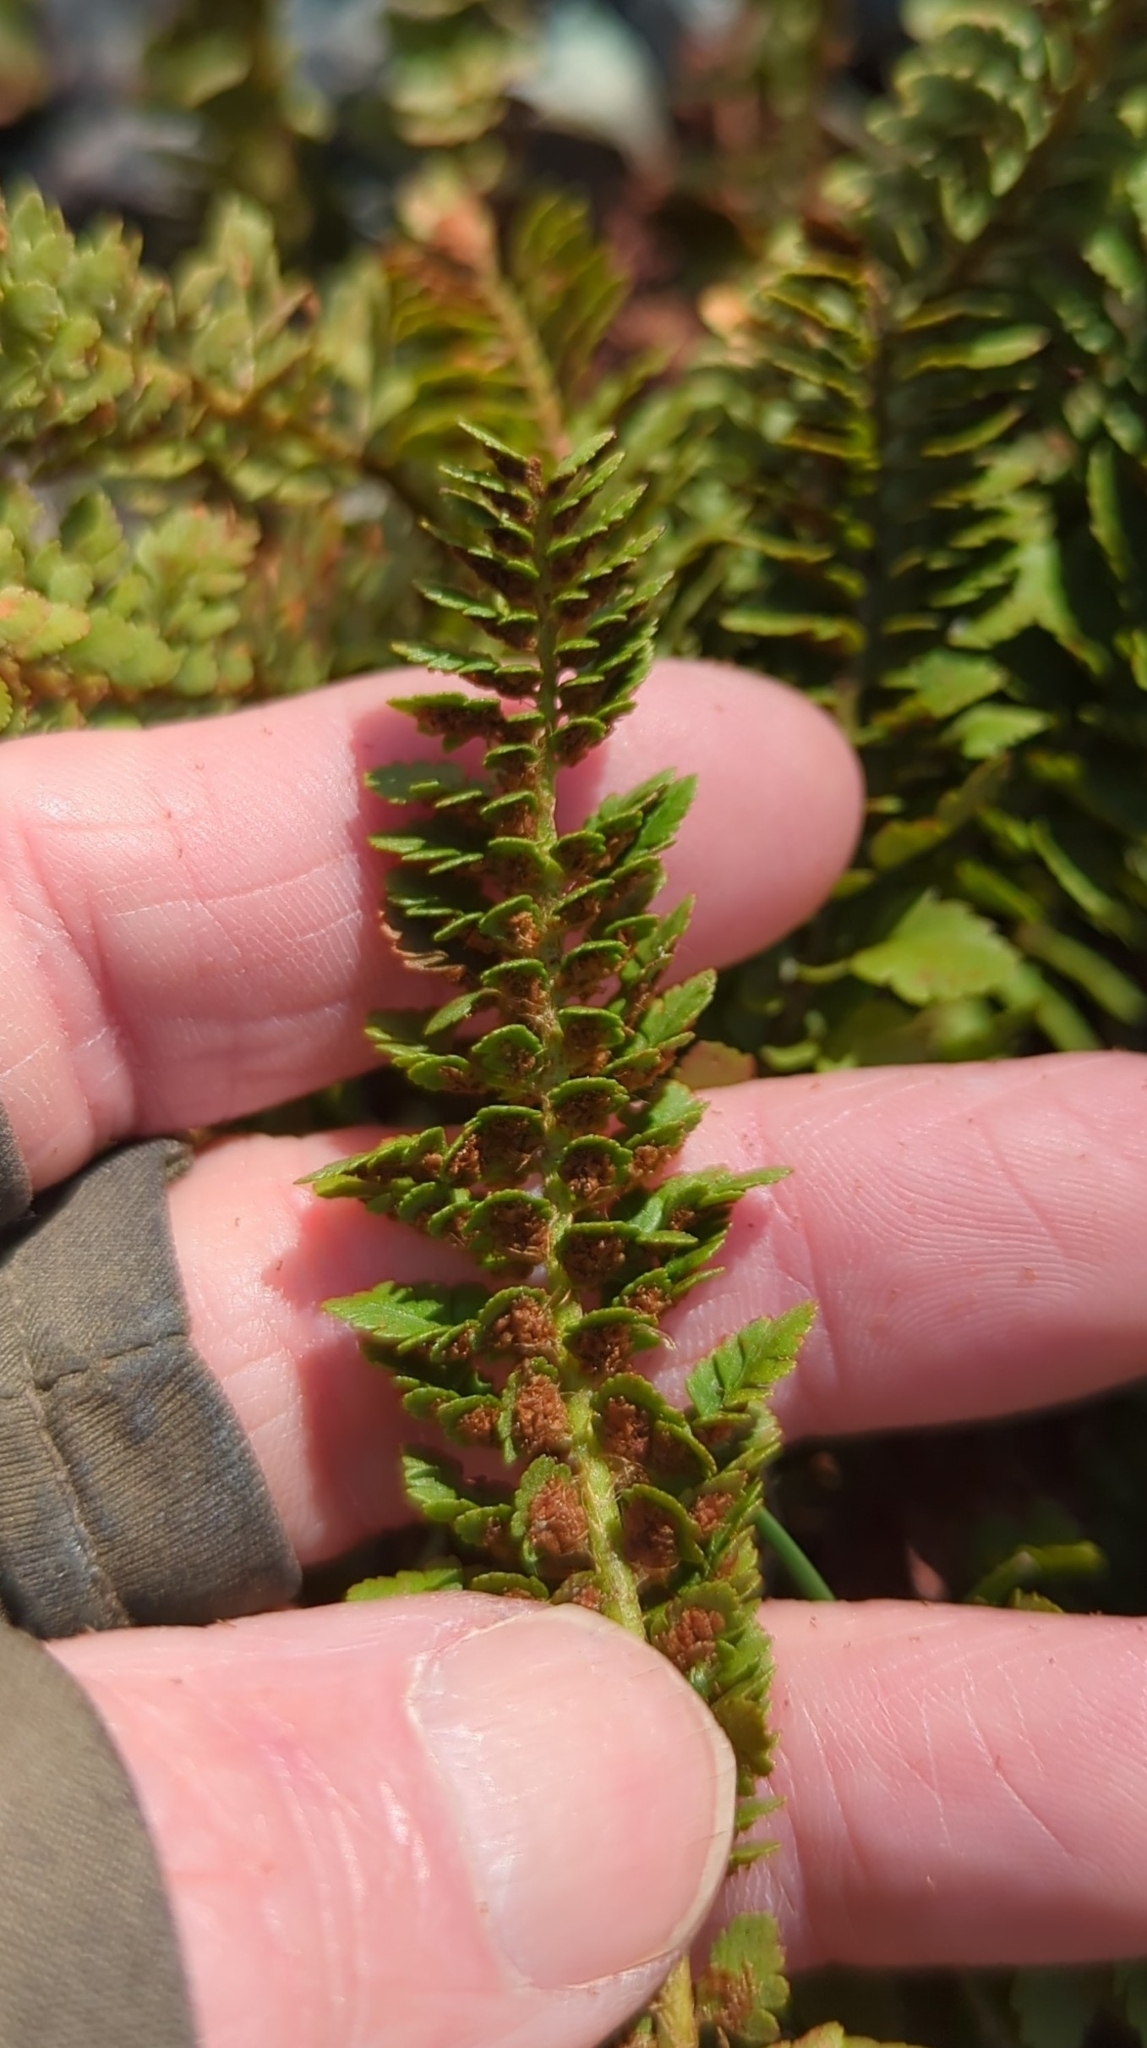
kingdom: Plantae
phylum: Tracheophyta
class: Polypodiopsida
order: Polypodiales
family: Dryopteridaceae
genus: Polystichum
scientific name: Polystichum lemmonii
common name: Lemmon's holly fern
